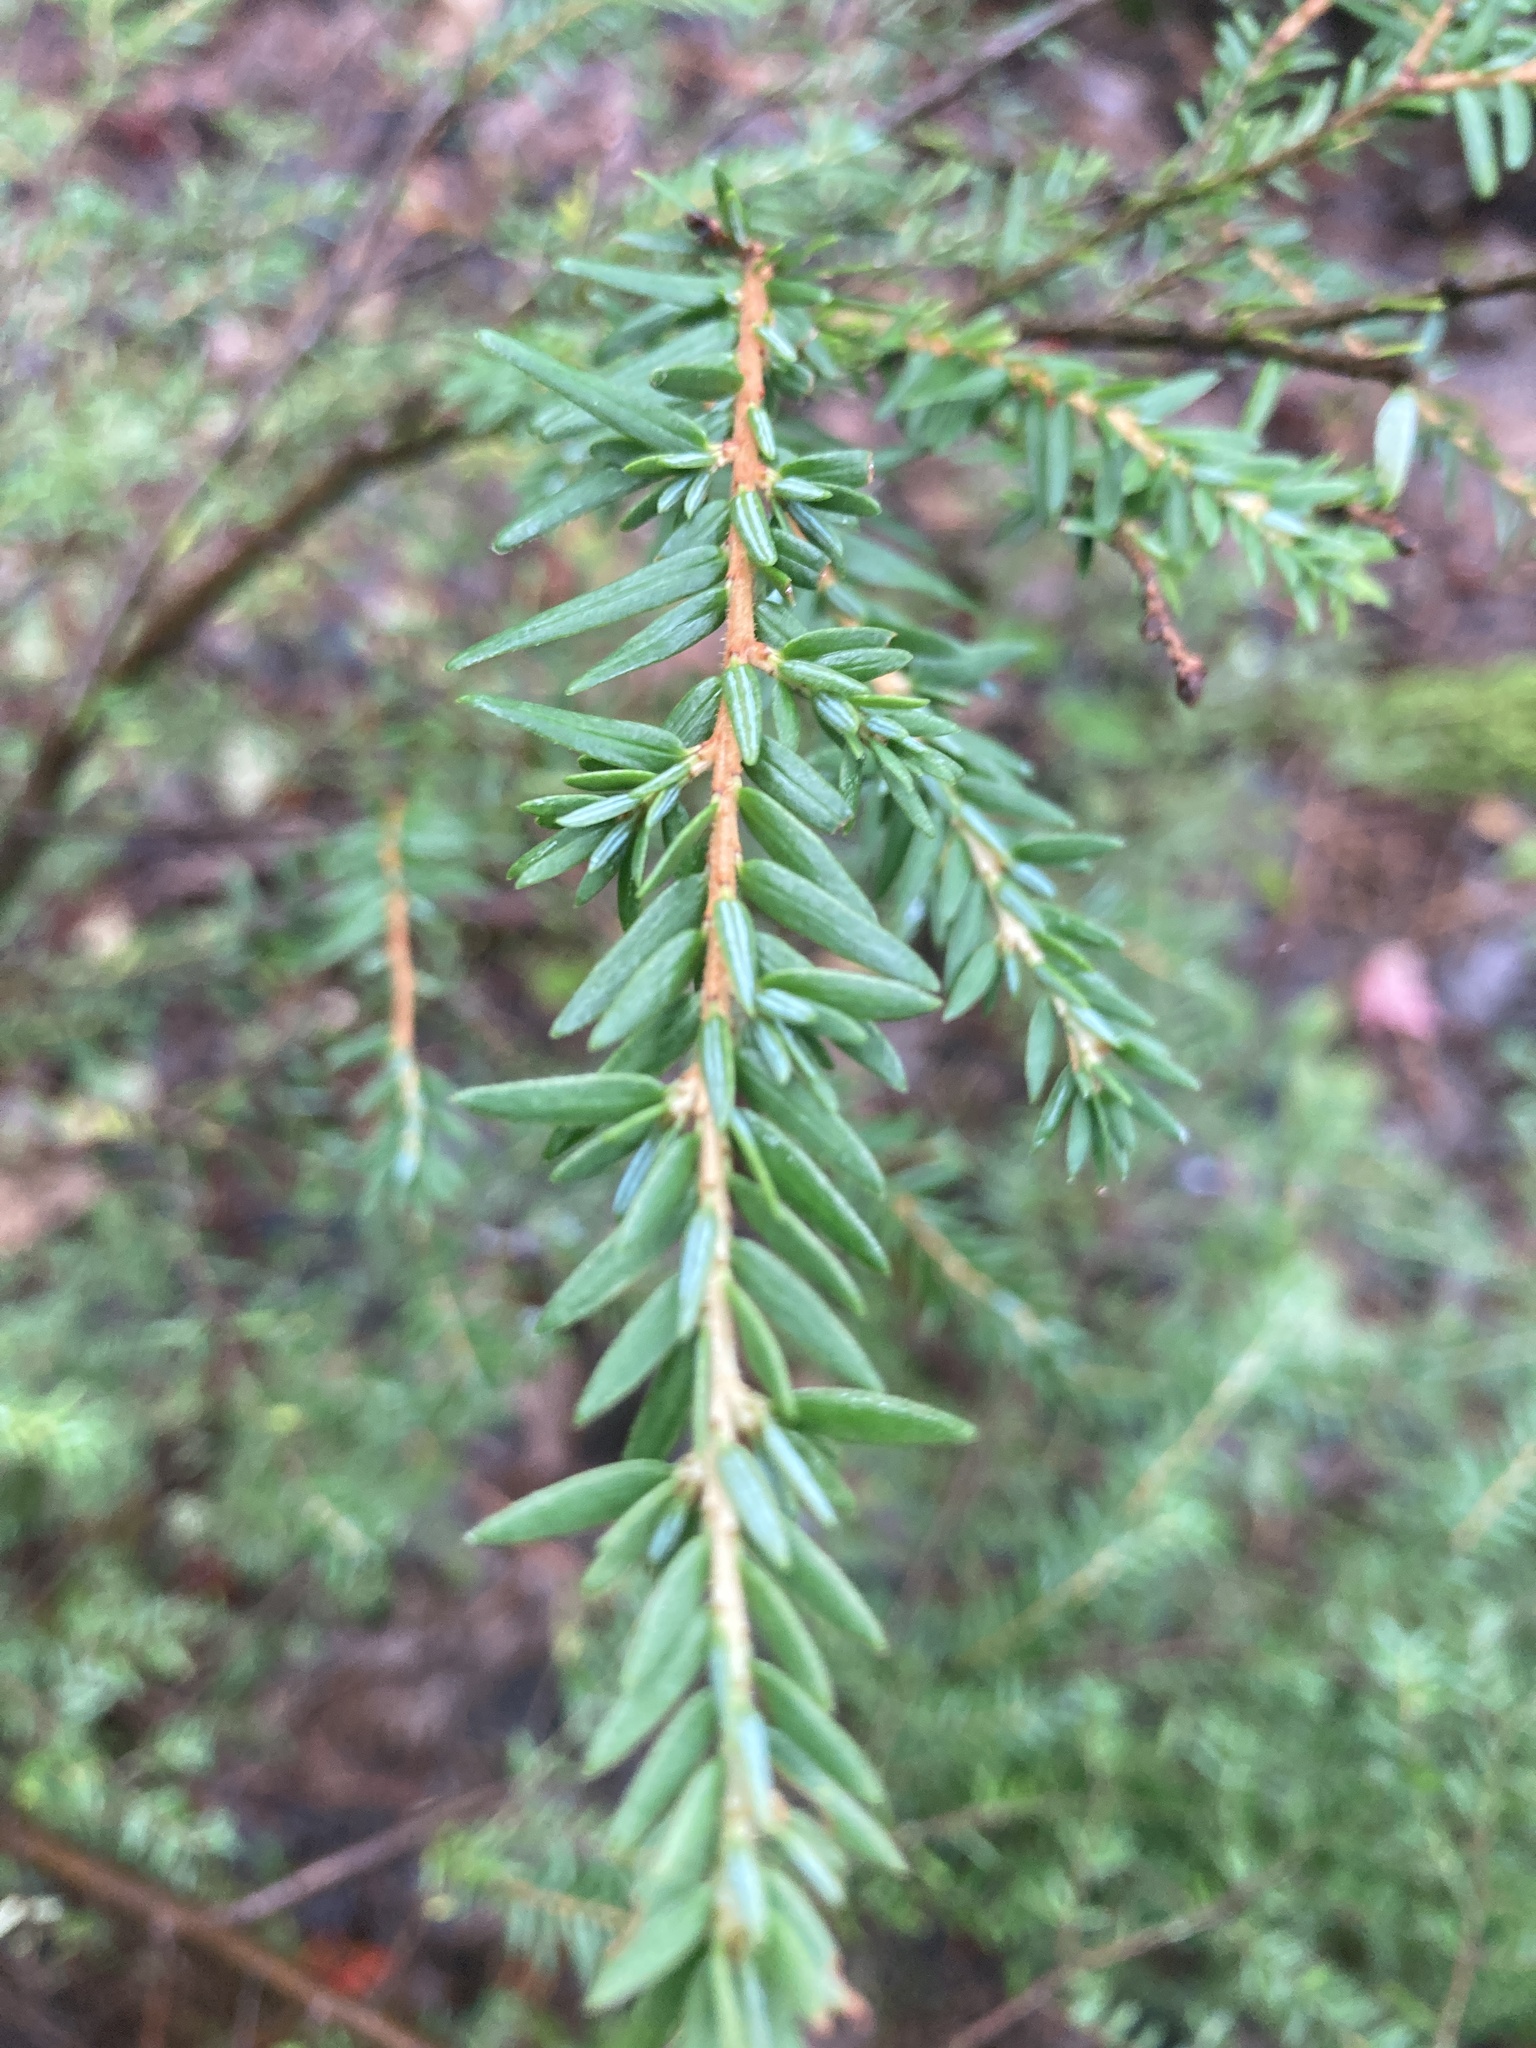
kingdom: Plantae
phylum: Tracheophyta
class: Pinopsida
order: Pinales
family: Pinaceae
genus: Tsuga
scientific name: Tsuga canadensis
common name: Eastern hemlock
